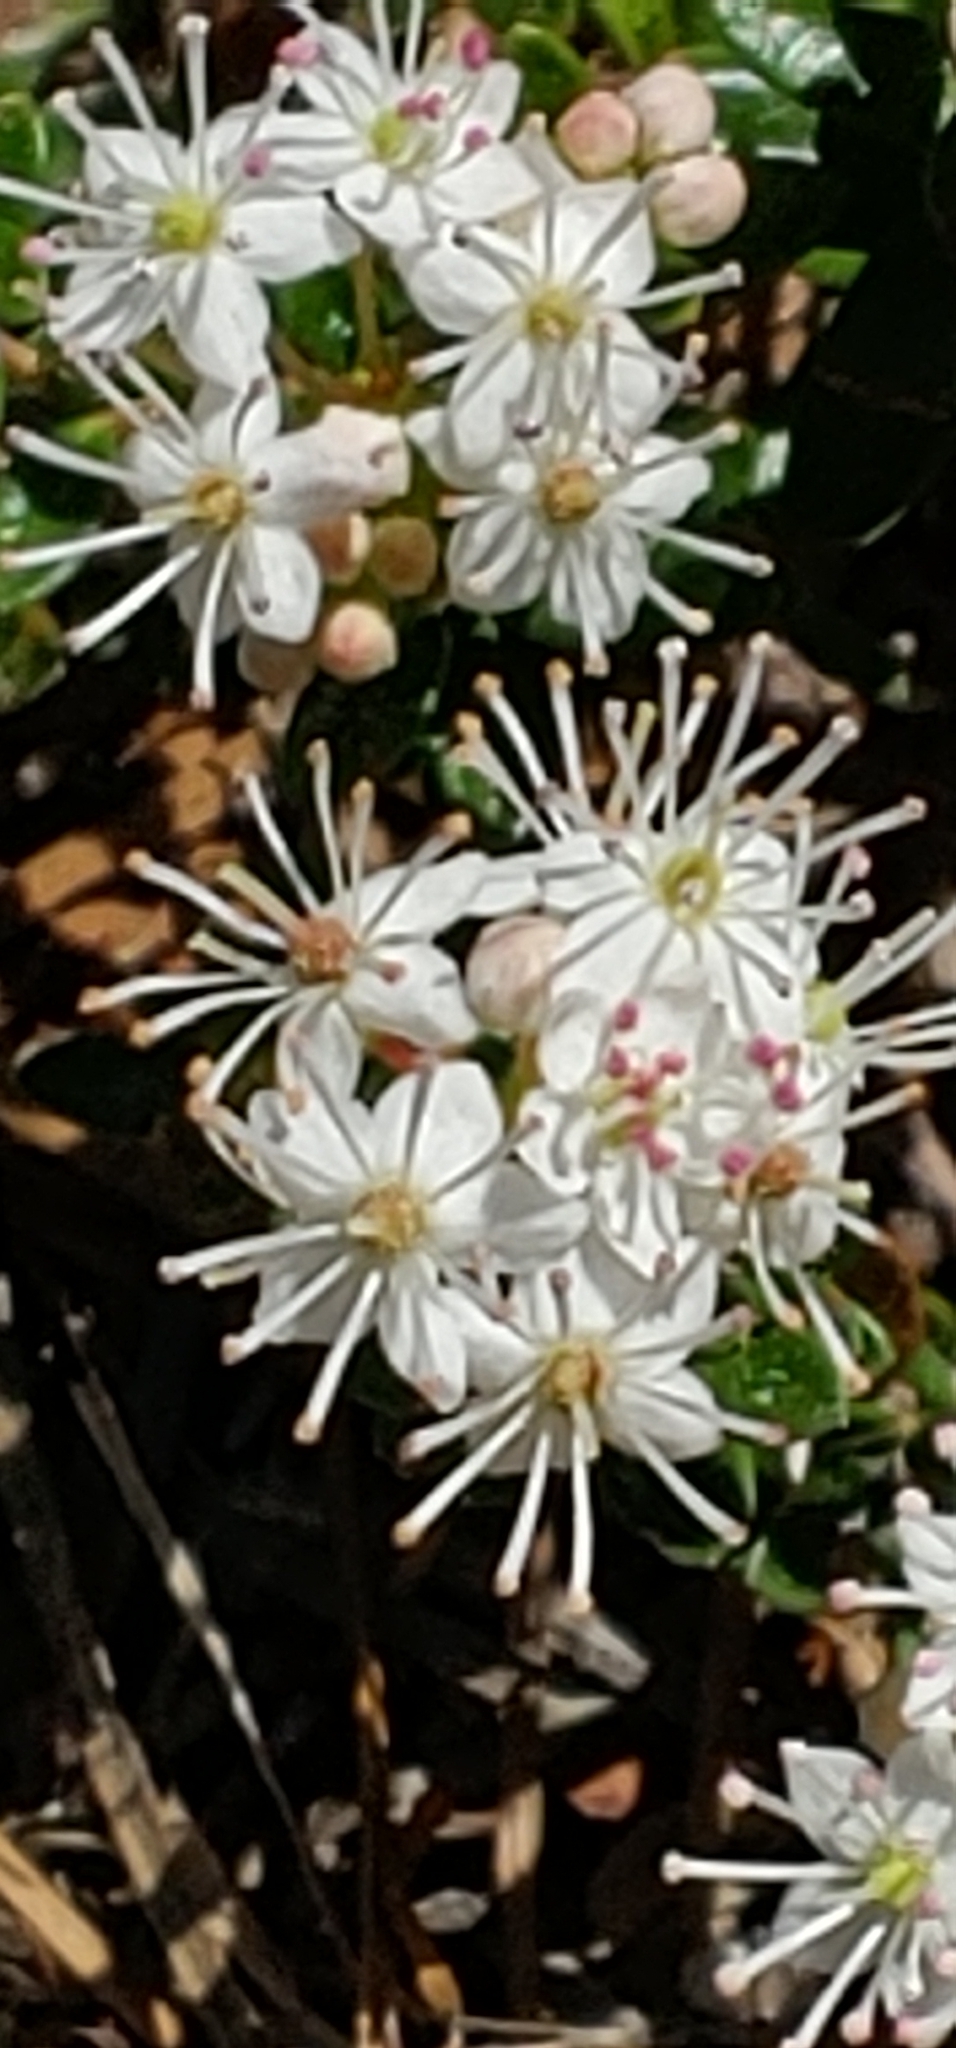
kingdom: Plantae
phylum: Tracheophyta
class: Magnoliopsida
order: Ericales
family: Ericaceae
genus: Kalmia
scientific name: Kalmia buxifolia
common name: Sandmyrtle
